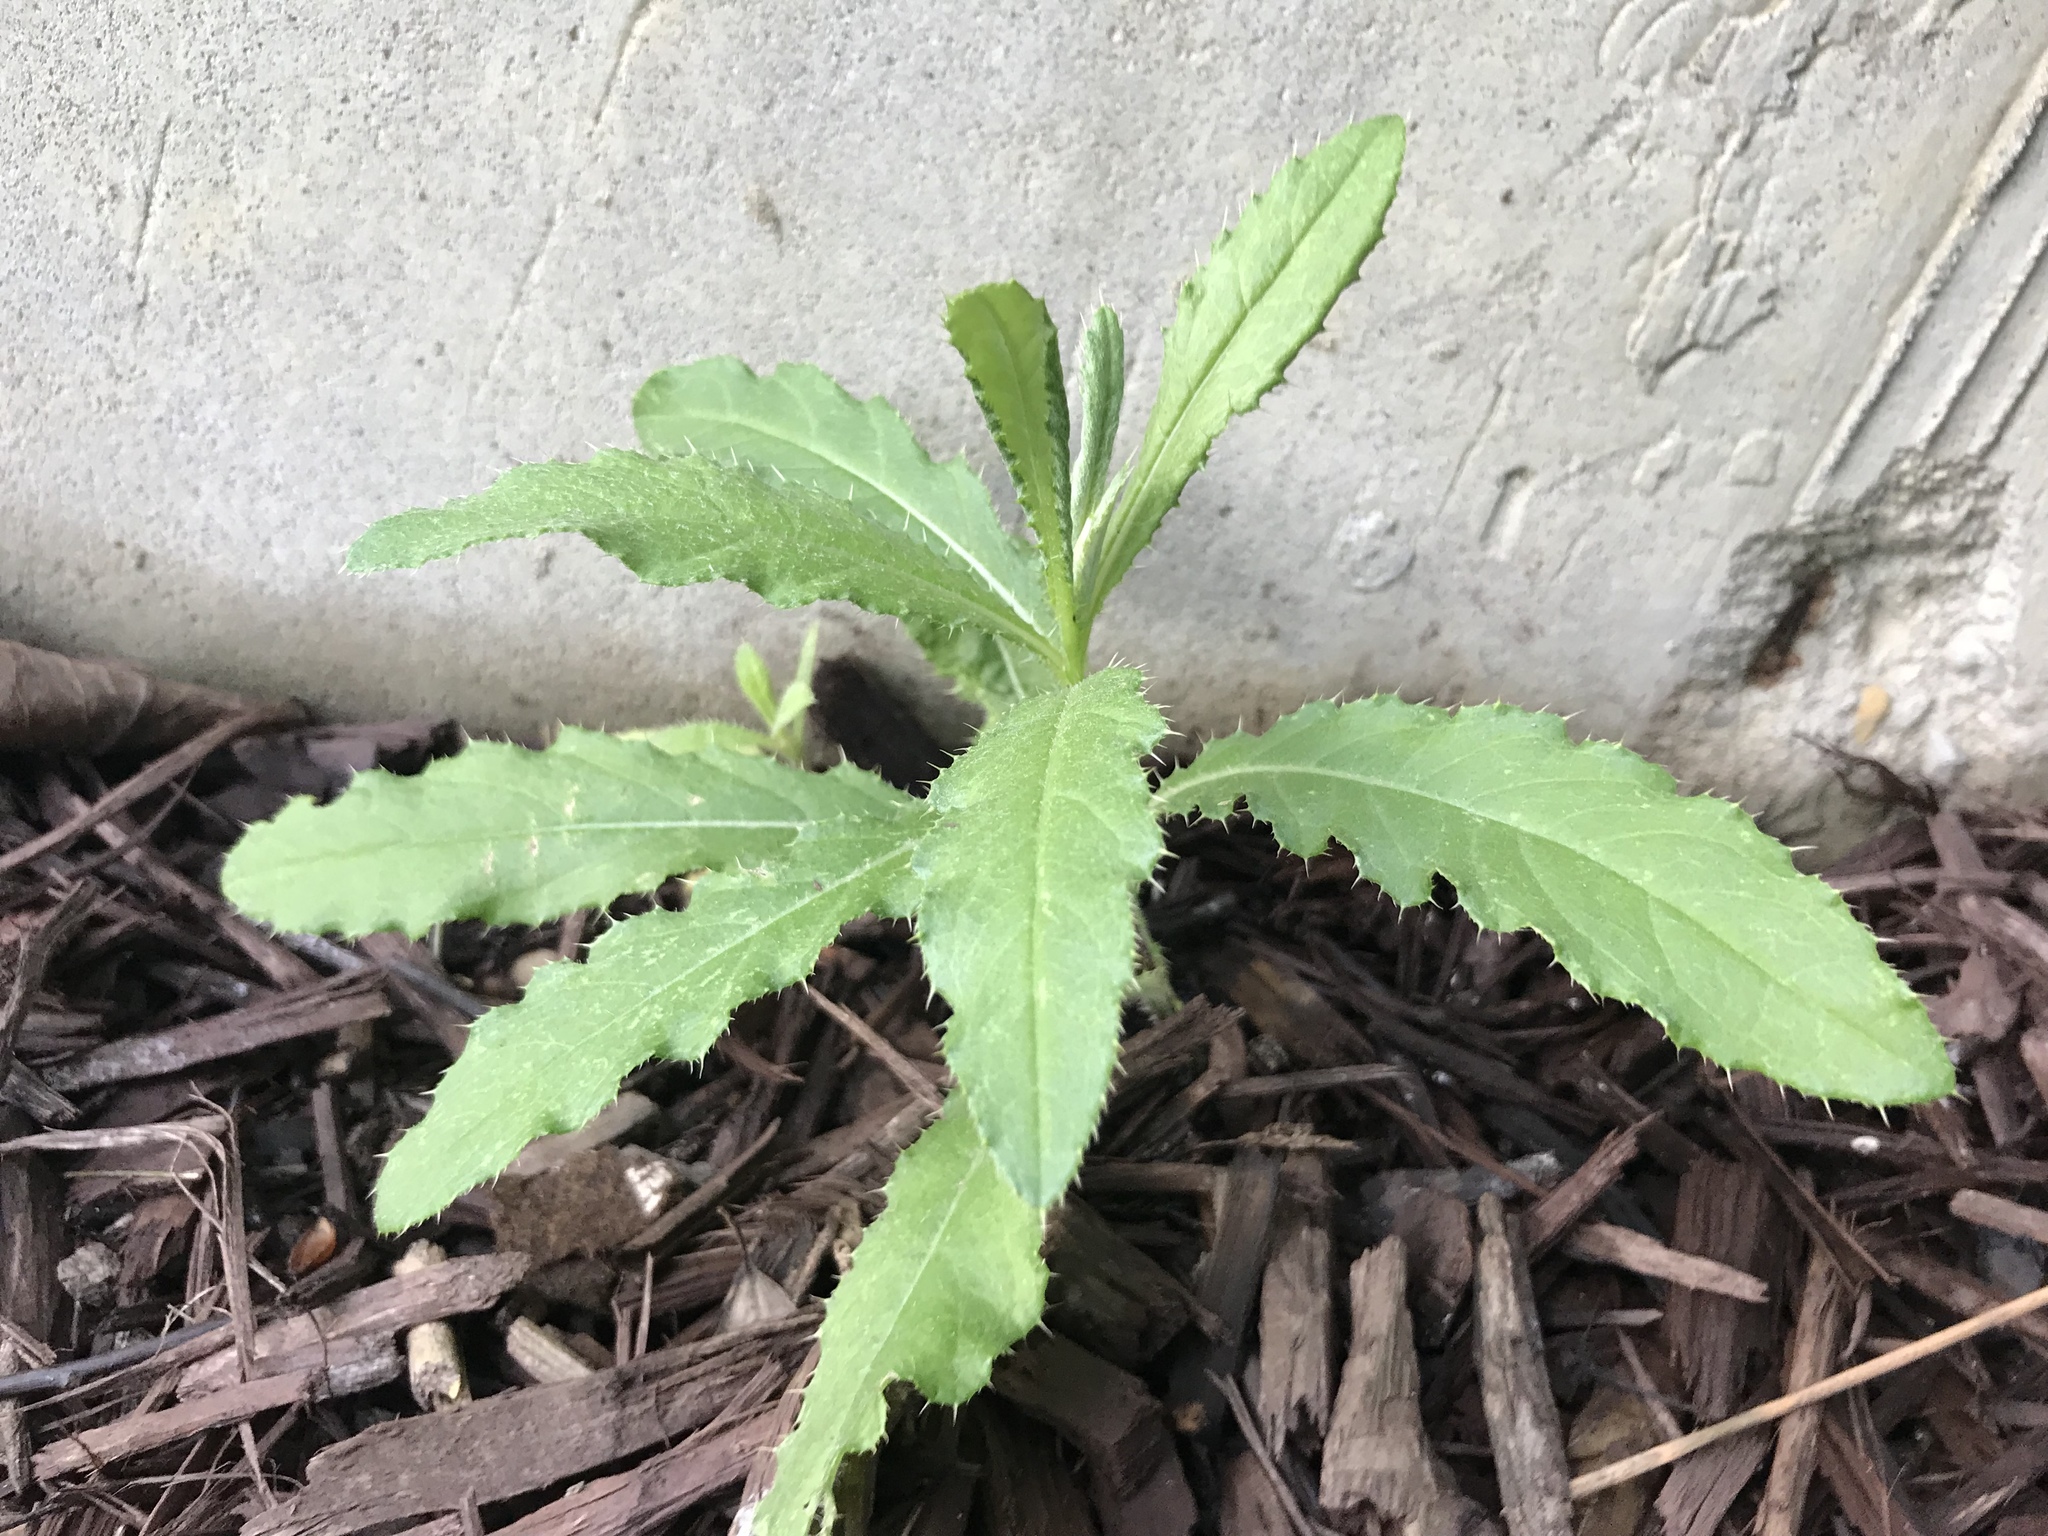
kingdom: Plantae
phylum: Tracheophyta
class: Magnoliopsida
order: Asterales
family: Asteraceae
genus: Cirsium
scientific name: Cirsium arvense
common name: Creeping thistle
